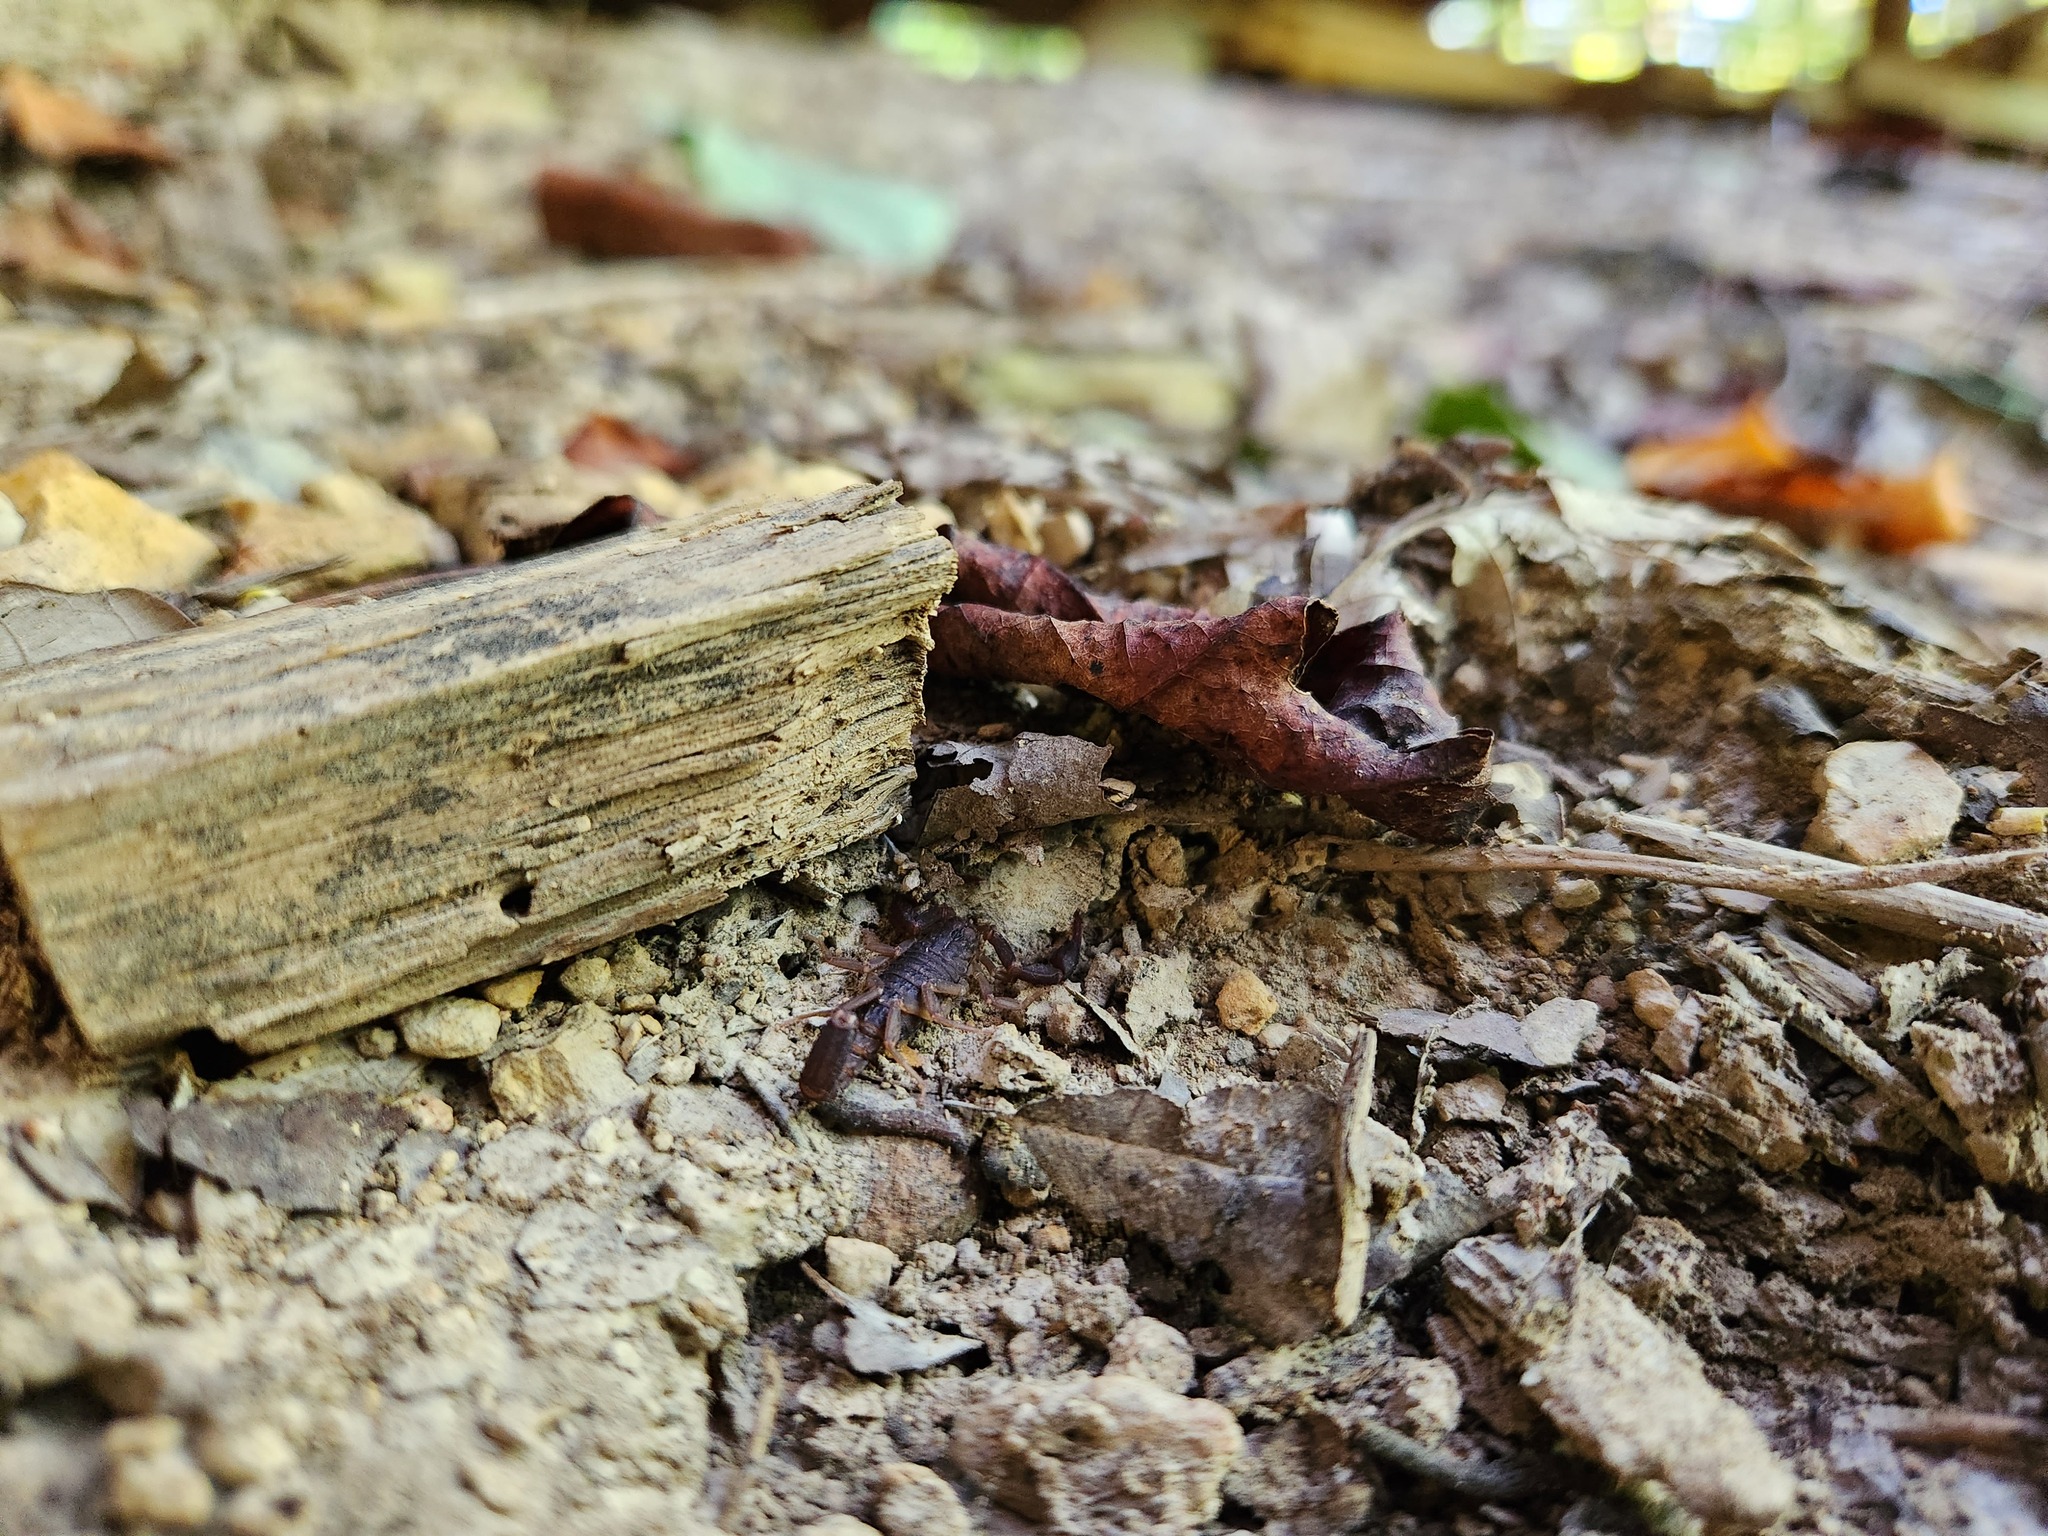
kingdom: Animalia
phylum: Arthropoda
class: Arachnida
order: Scorpiones
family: Vaejovidae
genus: Vaejovis
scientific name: Vaejovis carolinianus
